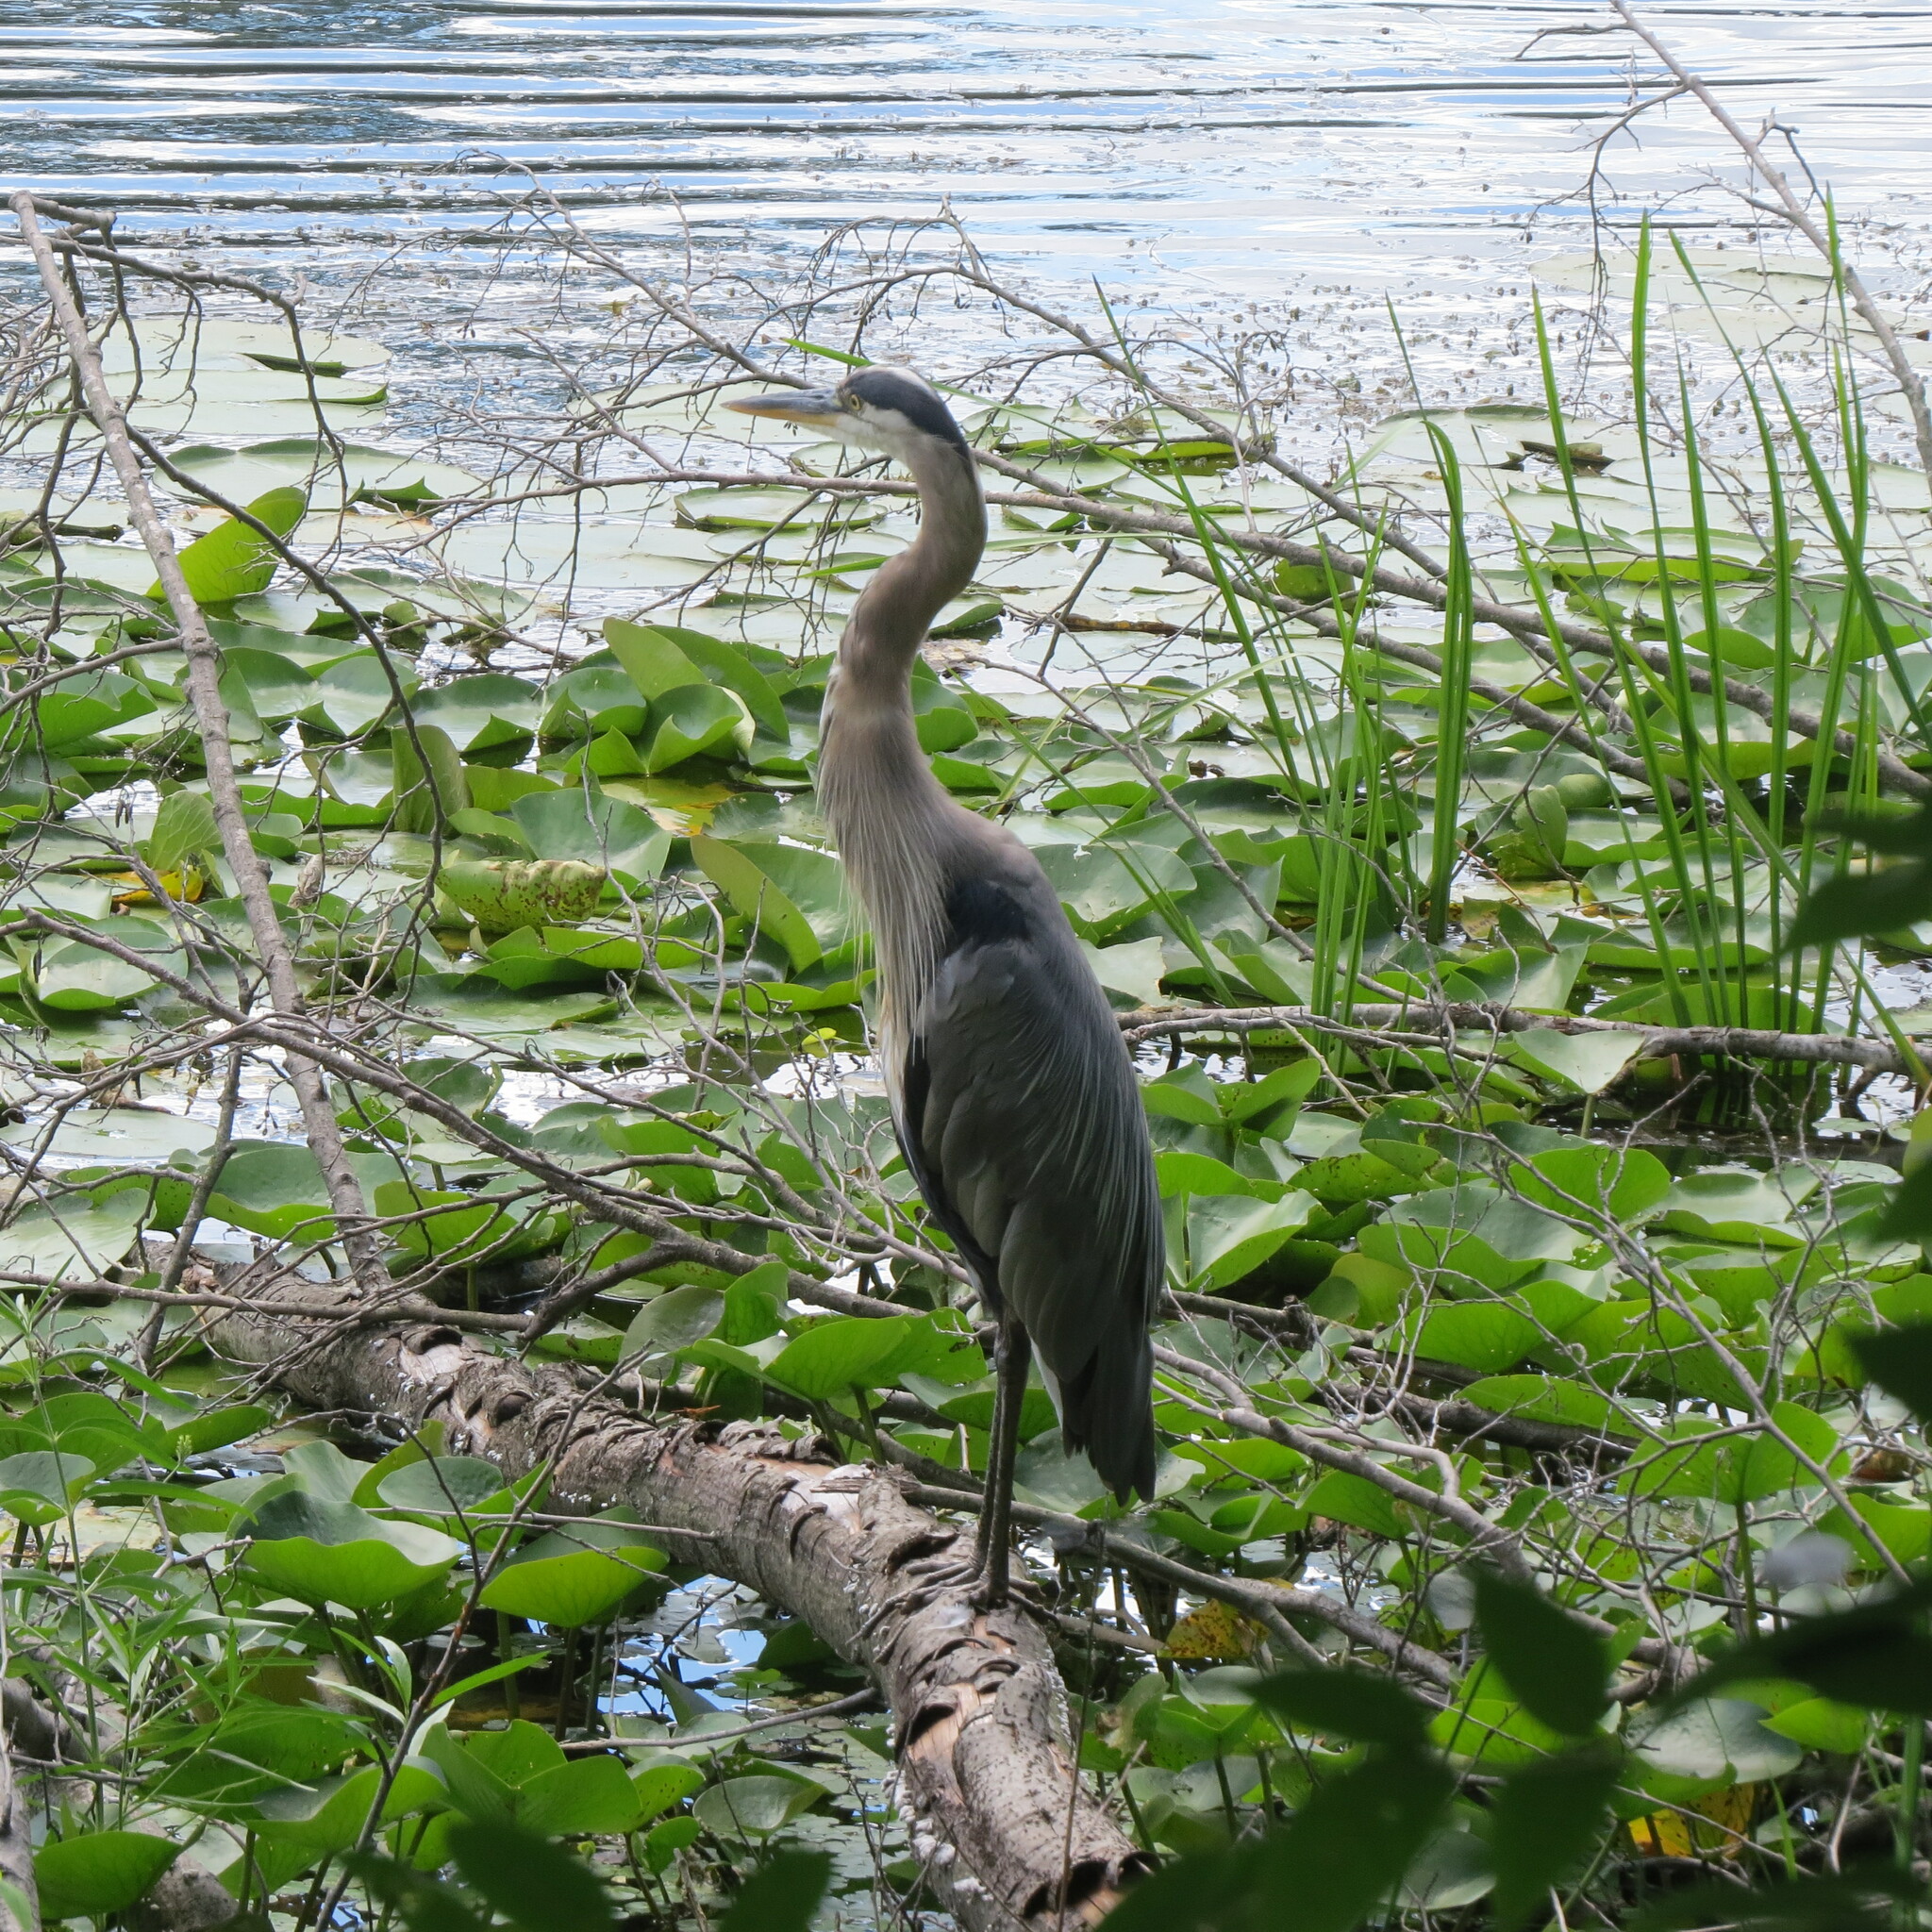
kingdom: Animalia
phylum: Chordata
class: Aves
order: Pelecaniformes
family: Ardeidae
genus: Ardea
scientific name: Ardea herodias
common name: Great blue heron
